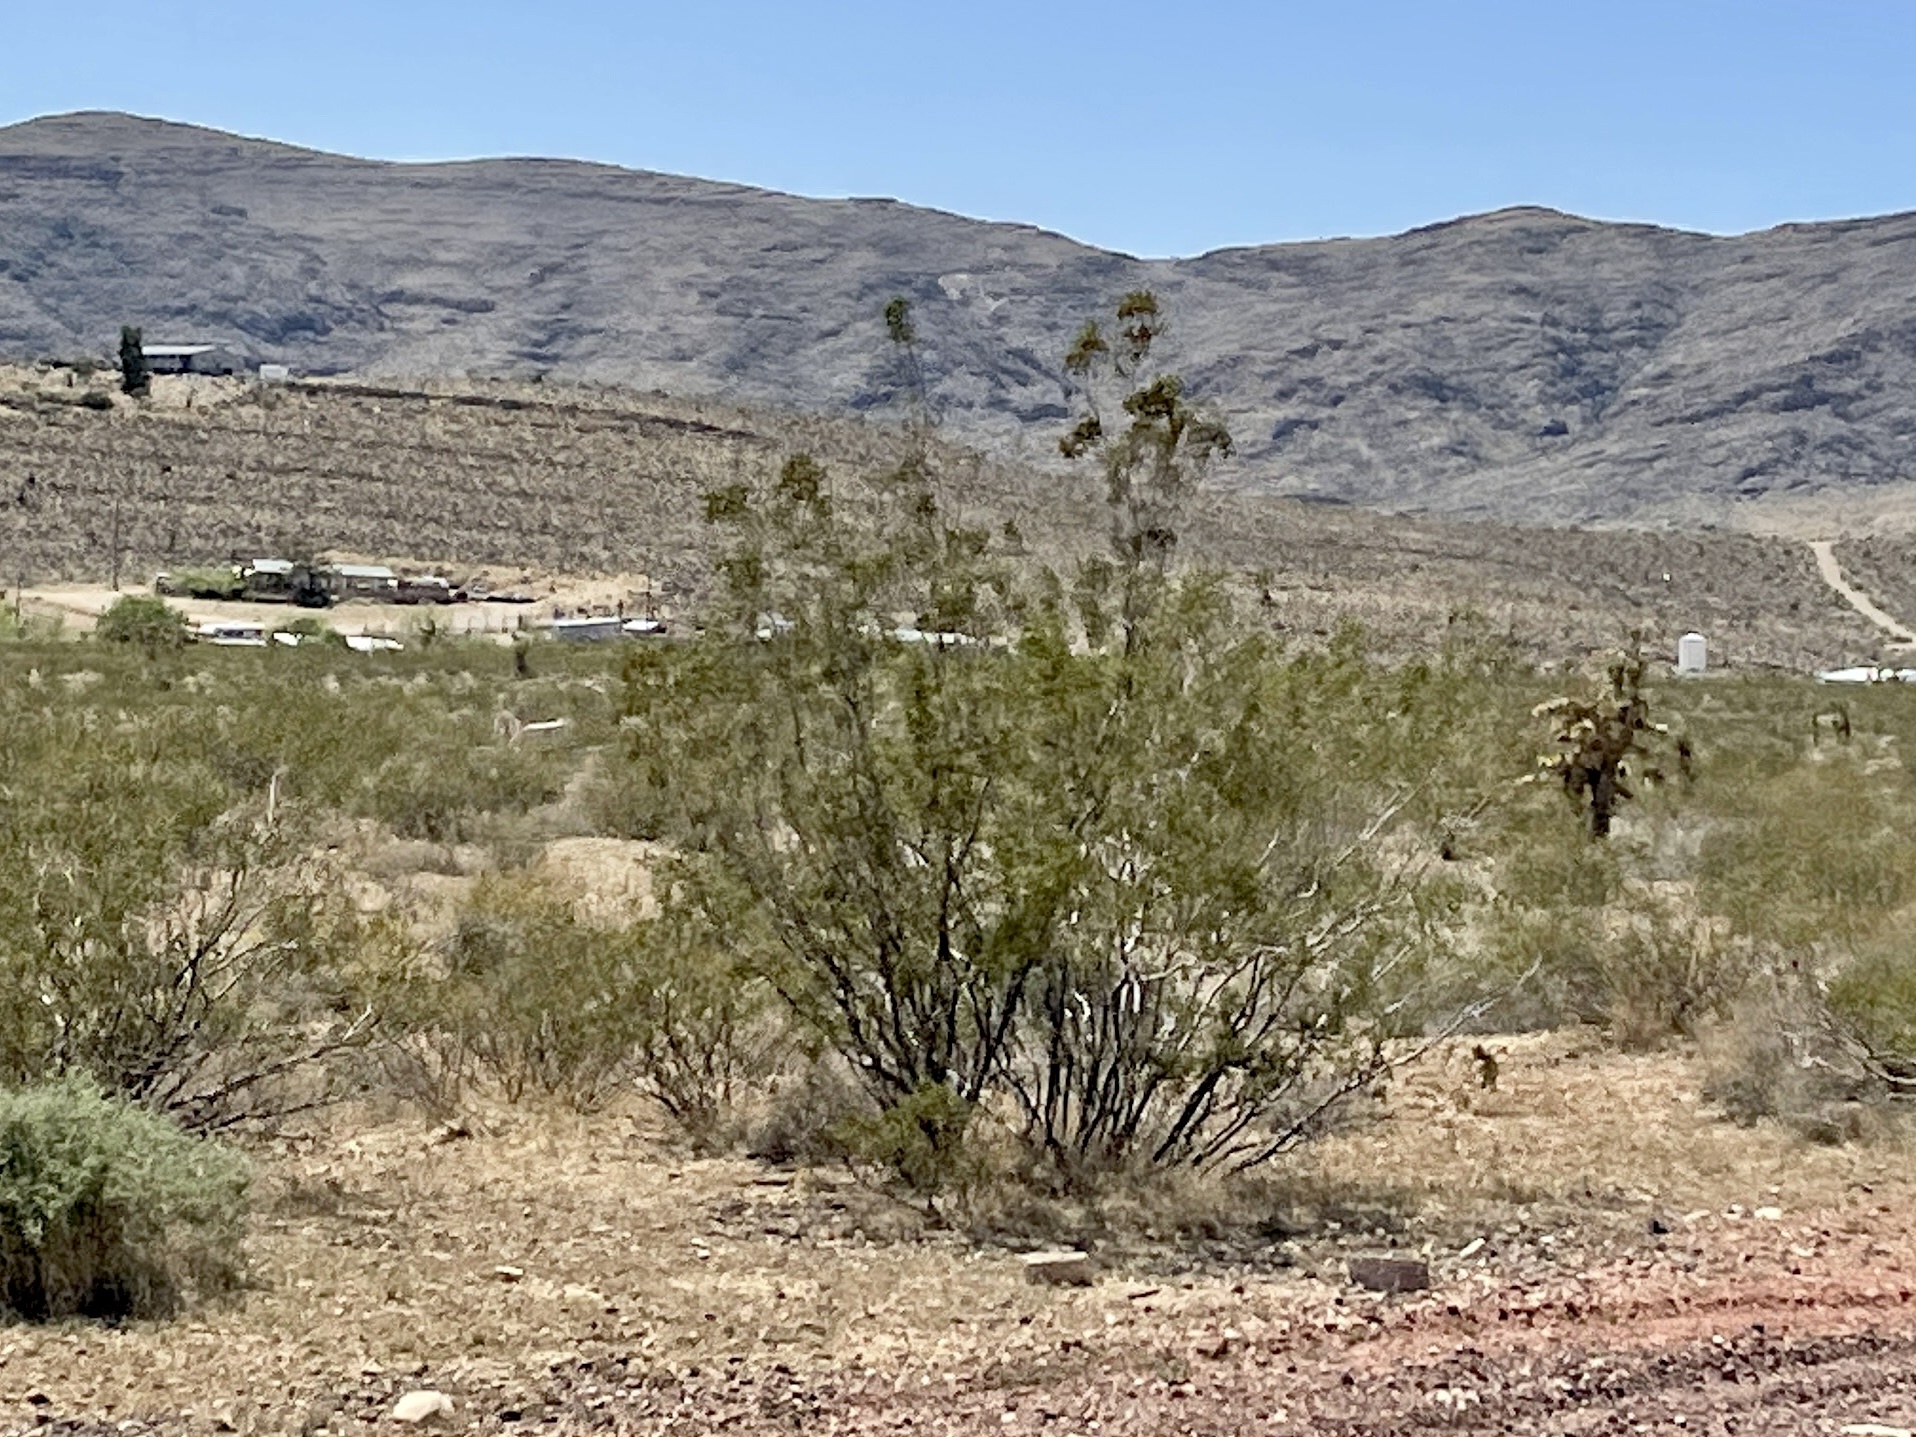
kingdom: Plantae
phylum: Tracheophyta
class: Magnoliopsida
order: Zygophyllales
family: Zygophyllaceae
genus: Larrea
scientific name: Larrea tridentata
